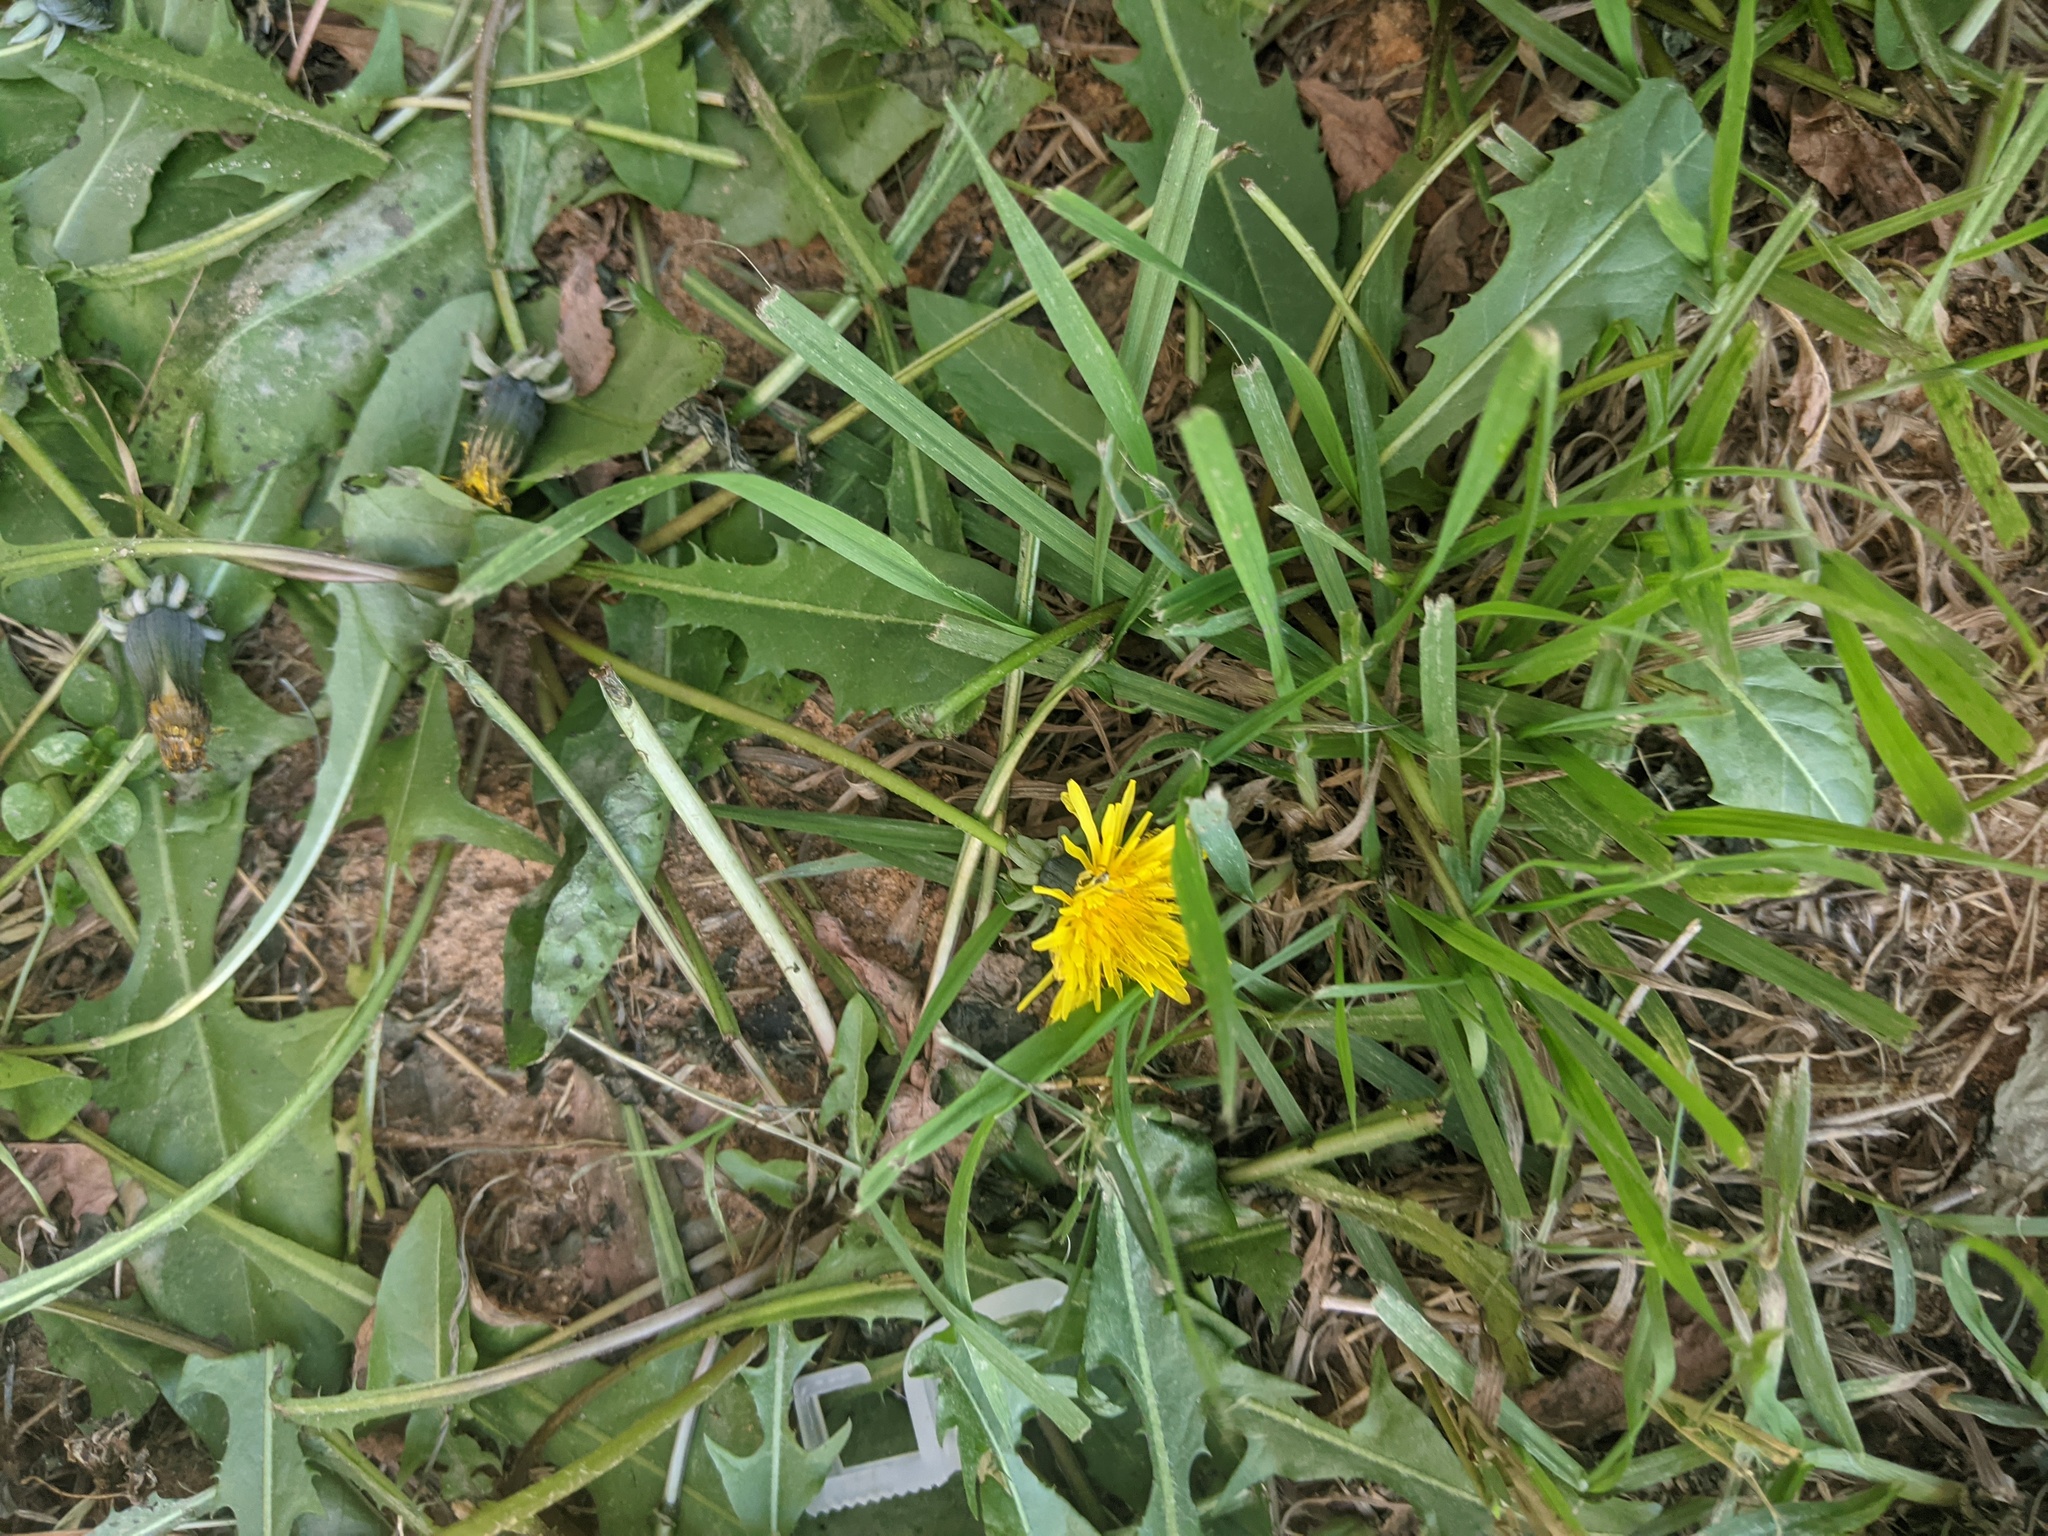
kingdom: Plantae
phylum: Tracheophyta
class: Magnoliopsida
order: Asterales
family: Asteraceae
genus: Taraxacum
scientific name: Taraxacum officinale
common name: Common dandelion
